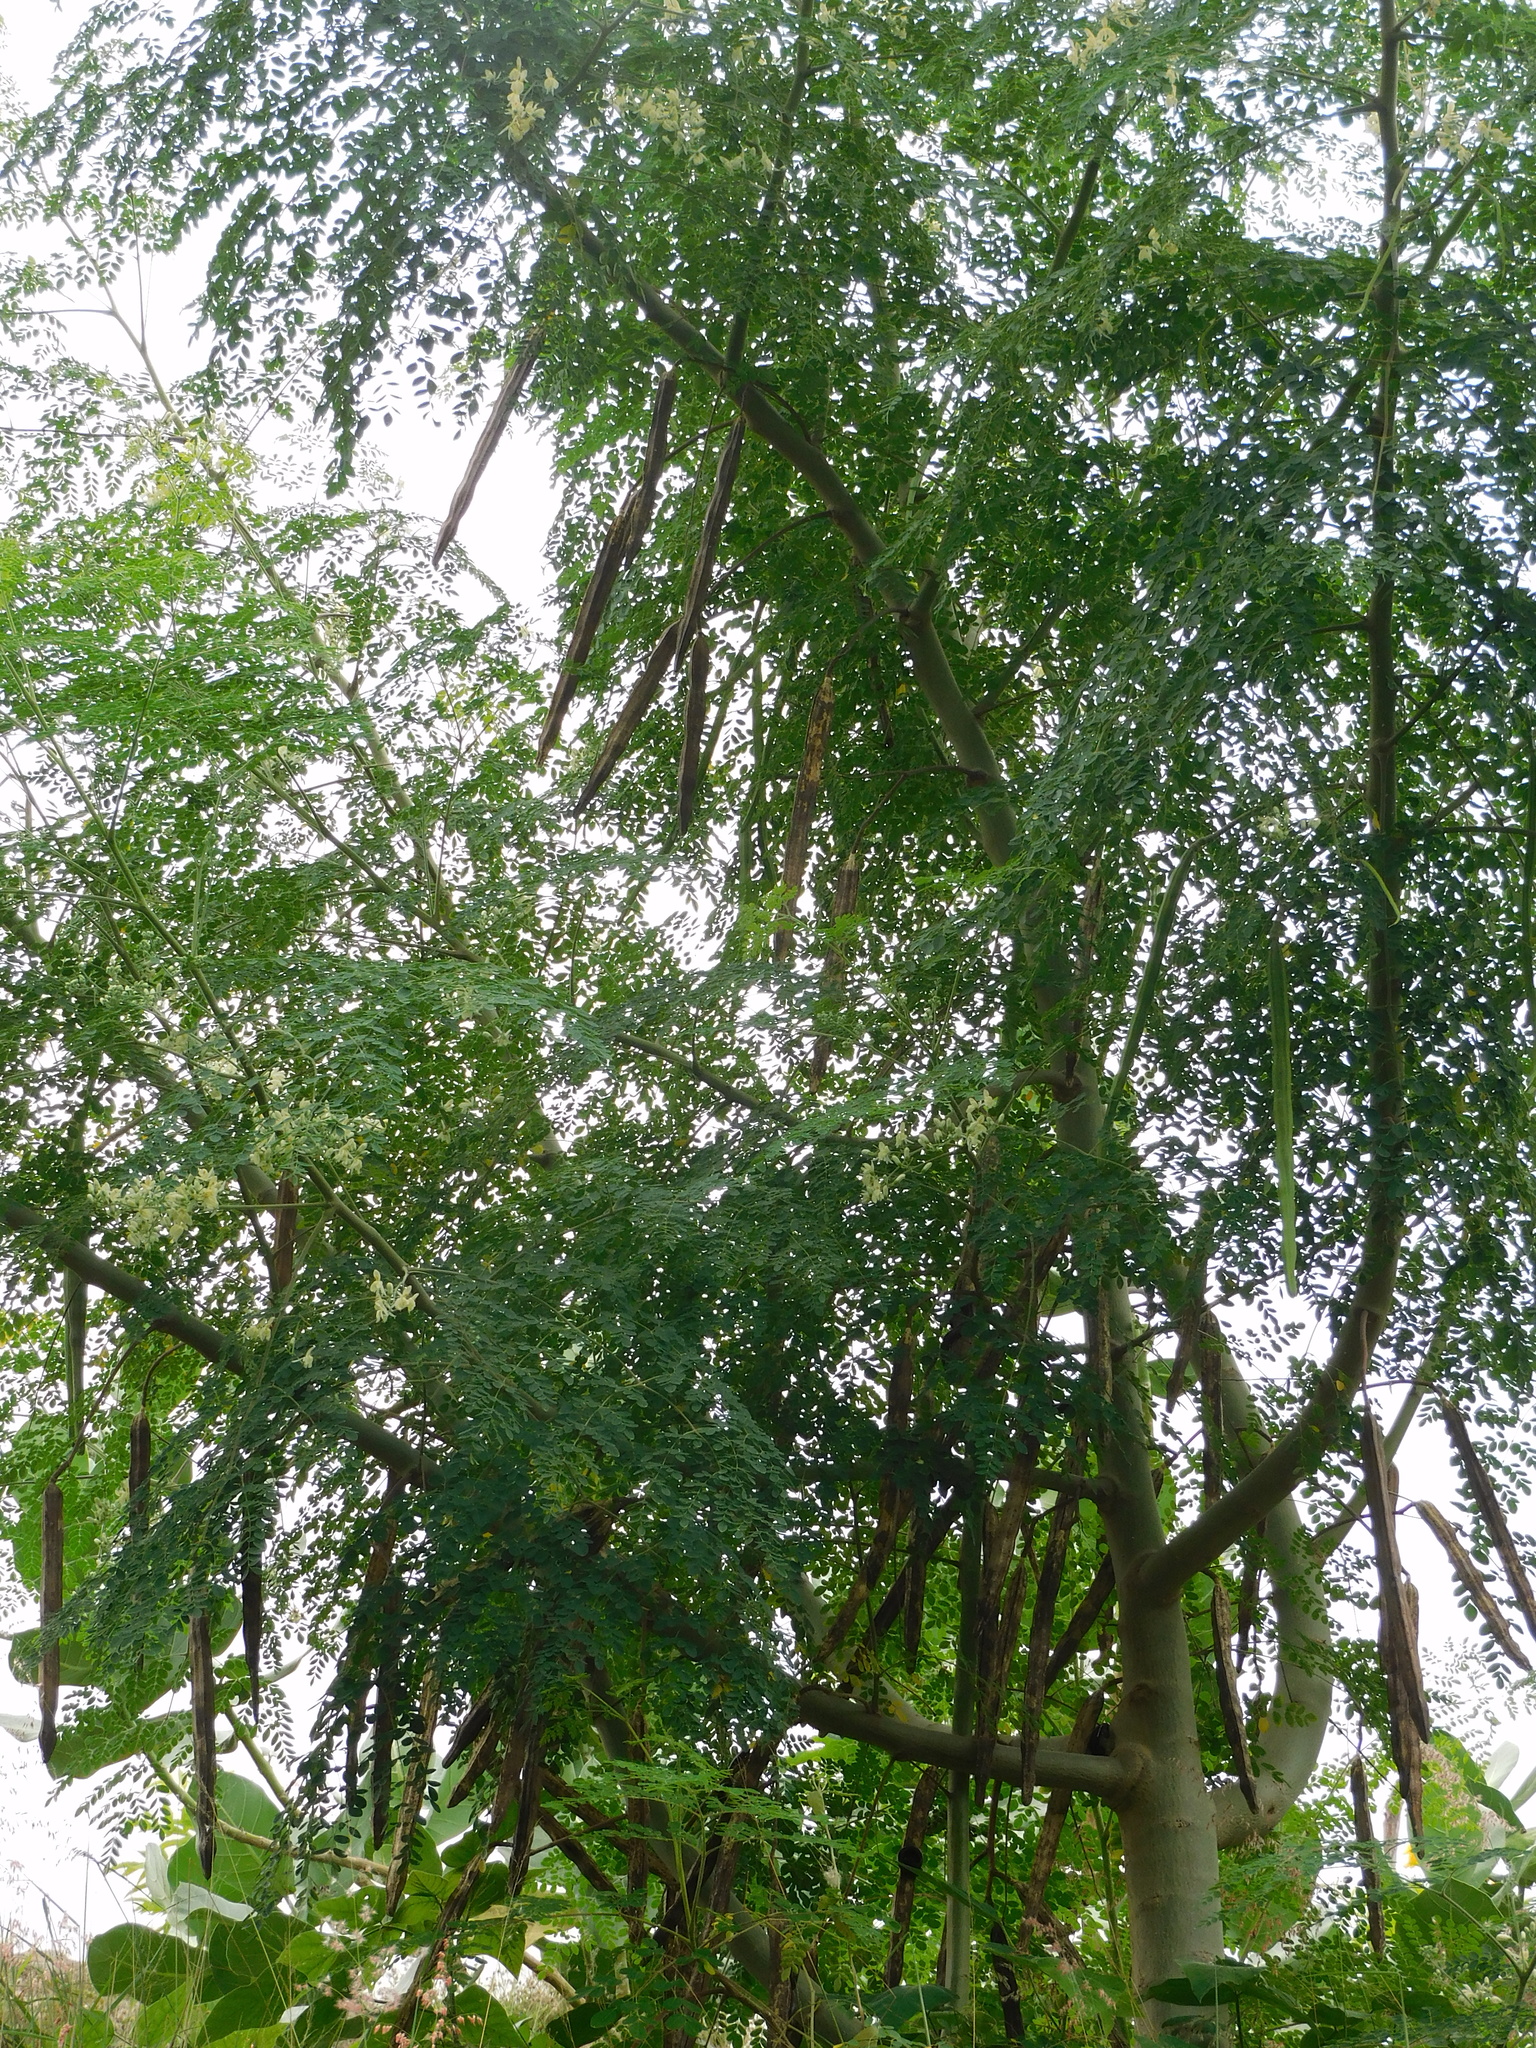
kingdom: Plantae
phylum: Tracheophyta
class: Magnoliopsida
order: Brassicales
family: Moringaceae
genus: Moringa
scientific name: Moringa oleifera
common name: Horseradish-tree
